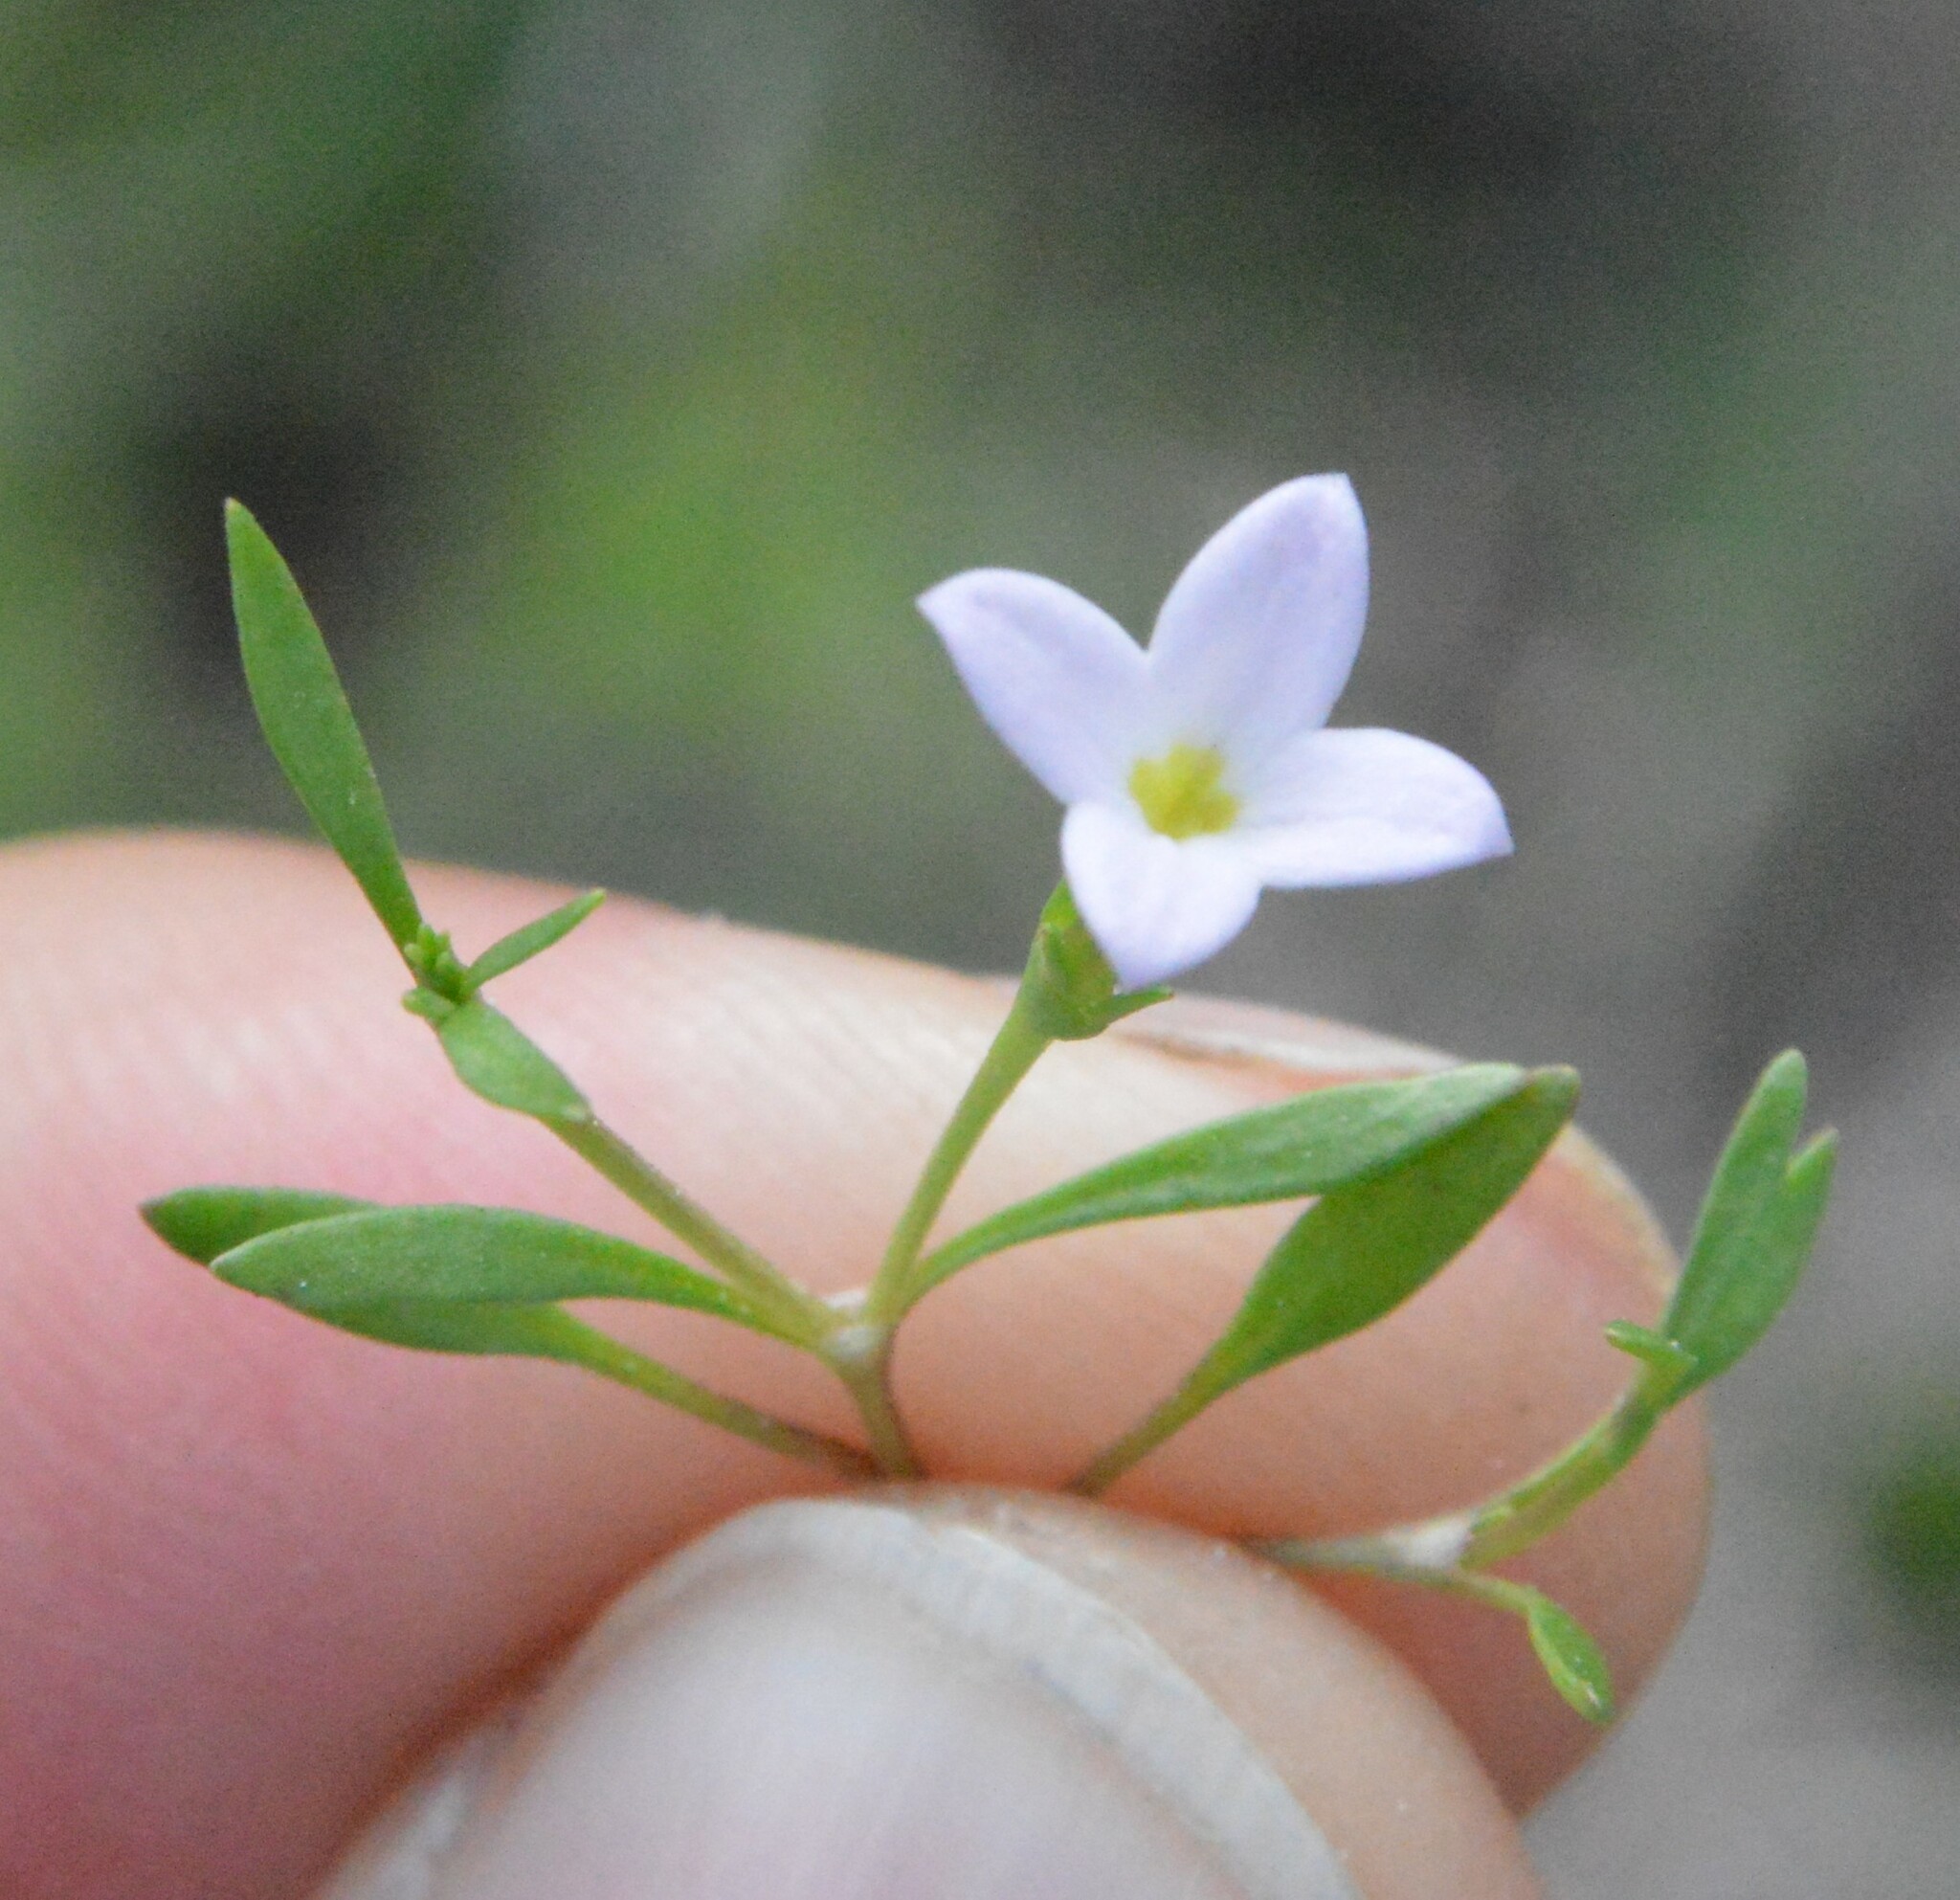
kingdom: Plantae
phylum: Tracheophyta
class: Magnoliopsida
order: Gentianales
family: Rubiaceae
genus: Houstonia
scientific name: Houstonia rosea
